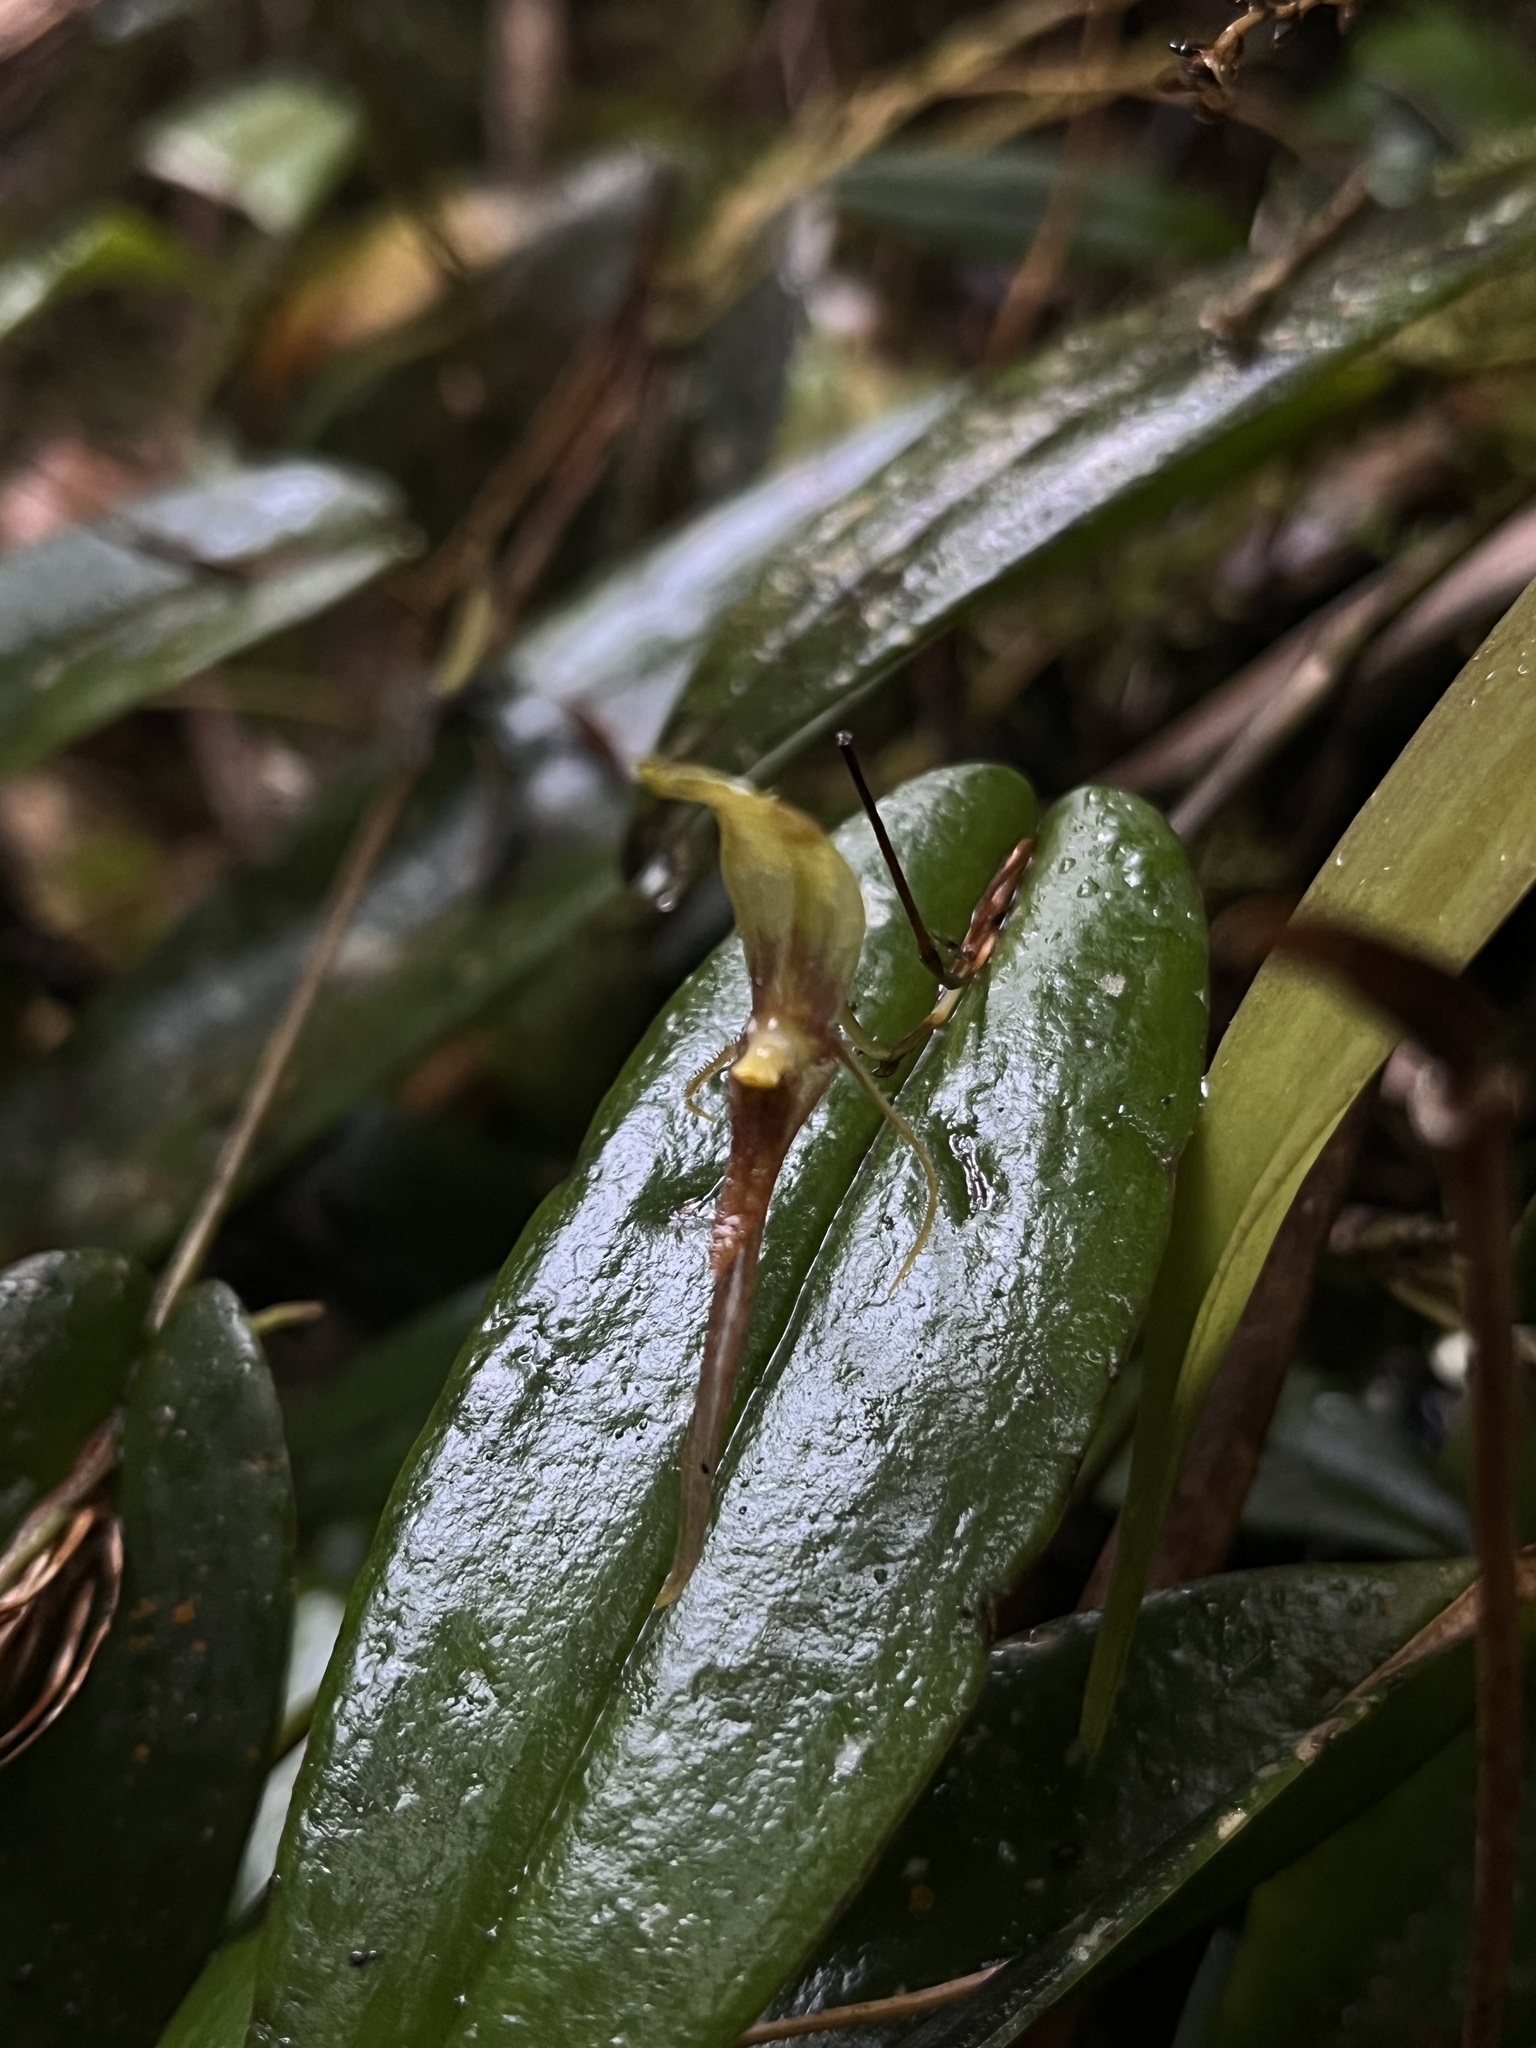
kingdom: Plantae
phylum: Tracheophyta
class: Liliopsida
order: Asparagales
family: Orchidaceae
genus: Pleurothallis
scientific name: Pleurothallis killipii
